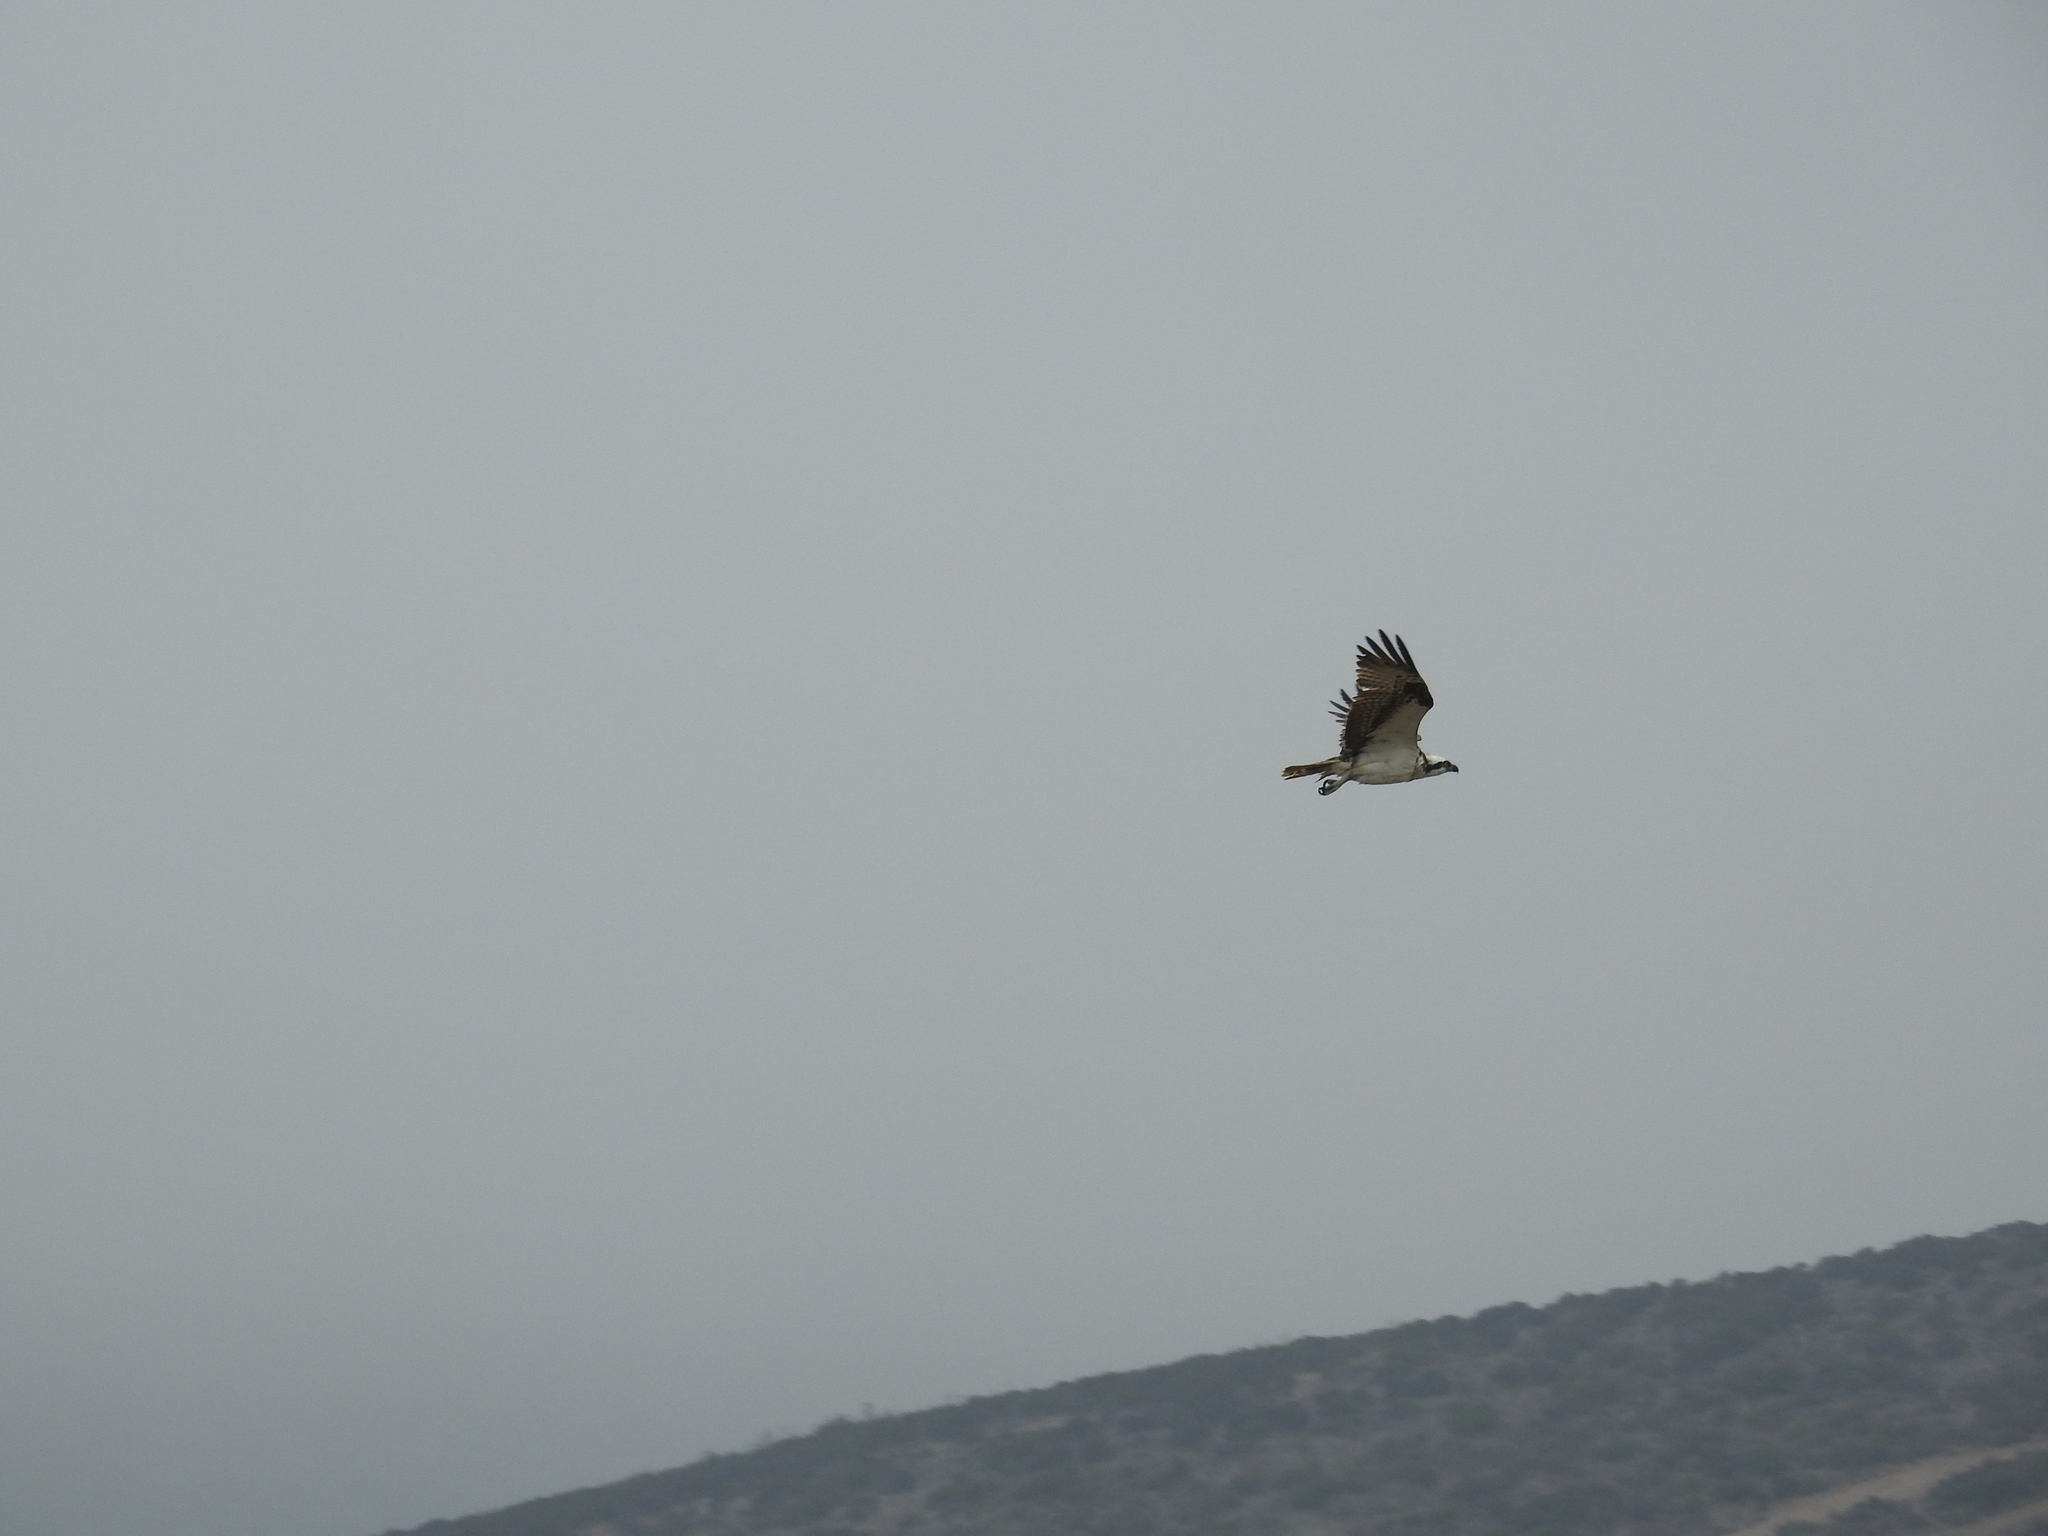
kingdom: Animalia
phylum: Chordata
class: Aves
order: Accipitriformes
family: Pandionidae
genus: Pandion
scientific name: Pandion haliaetus
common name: Osprey
